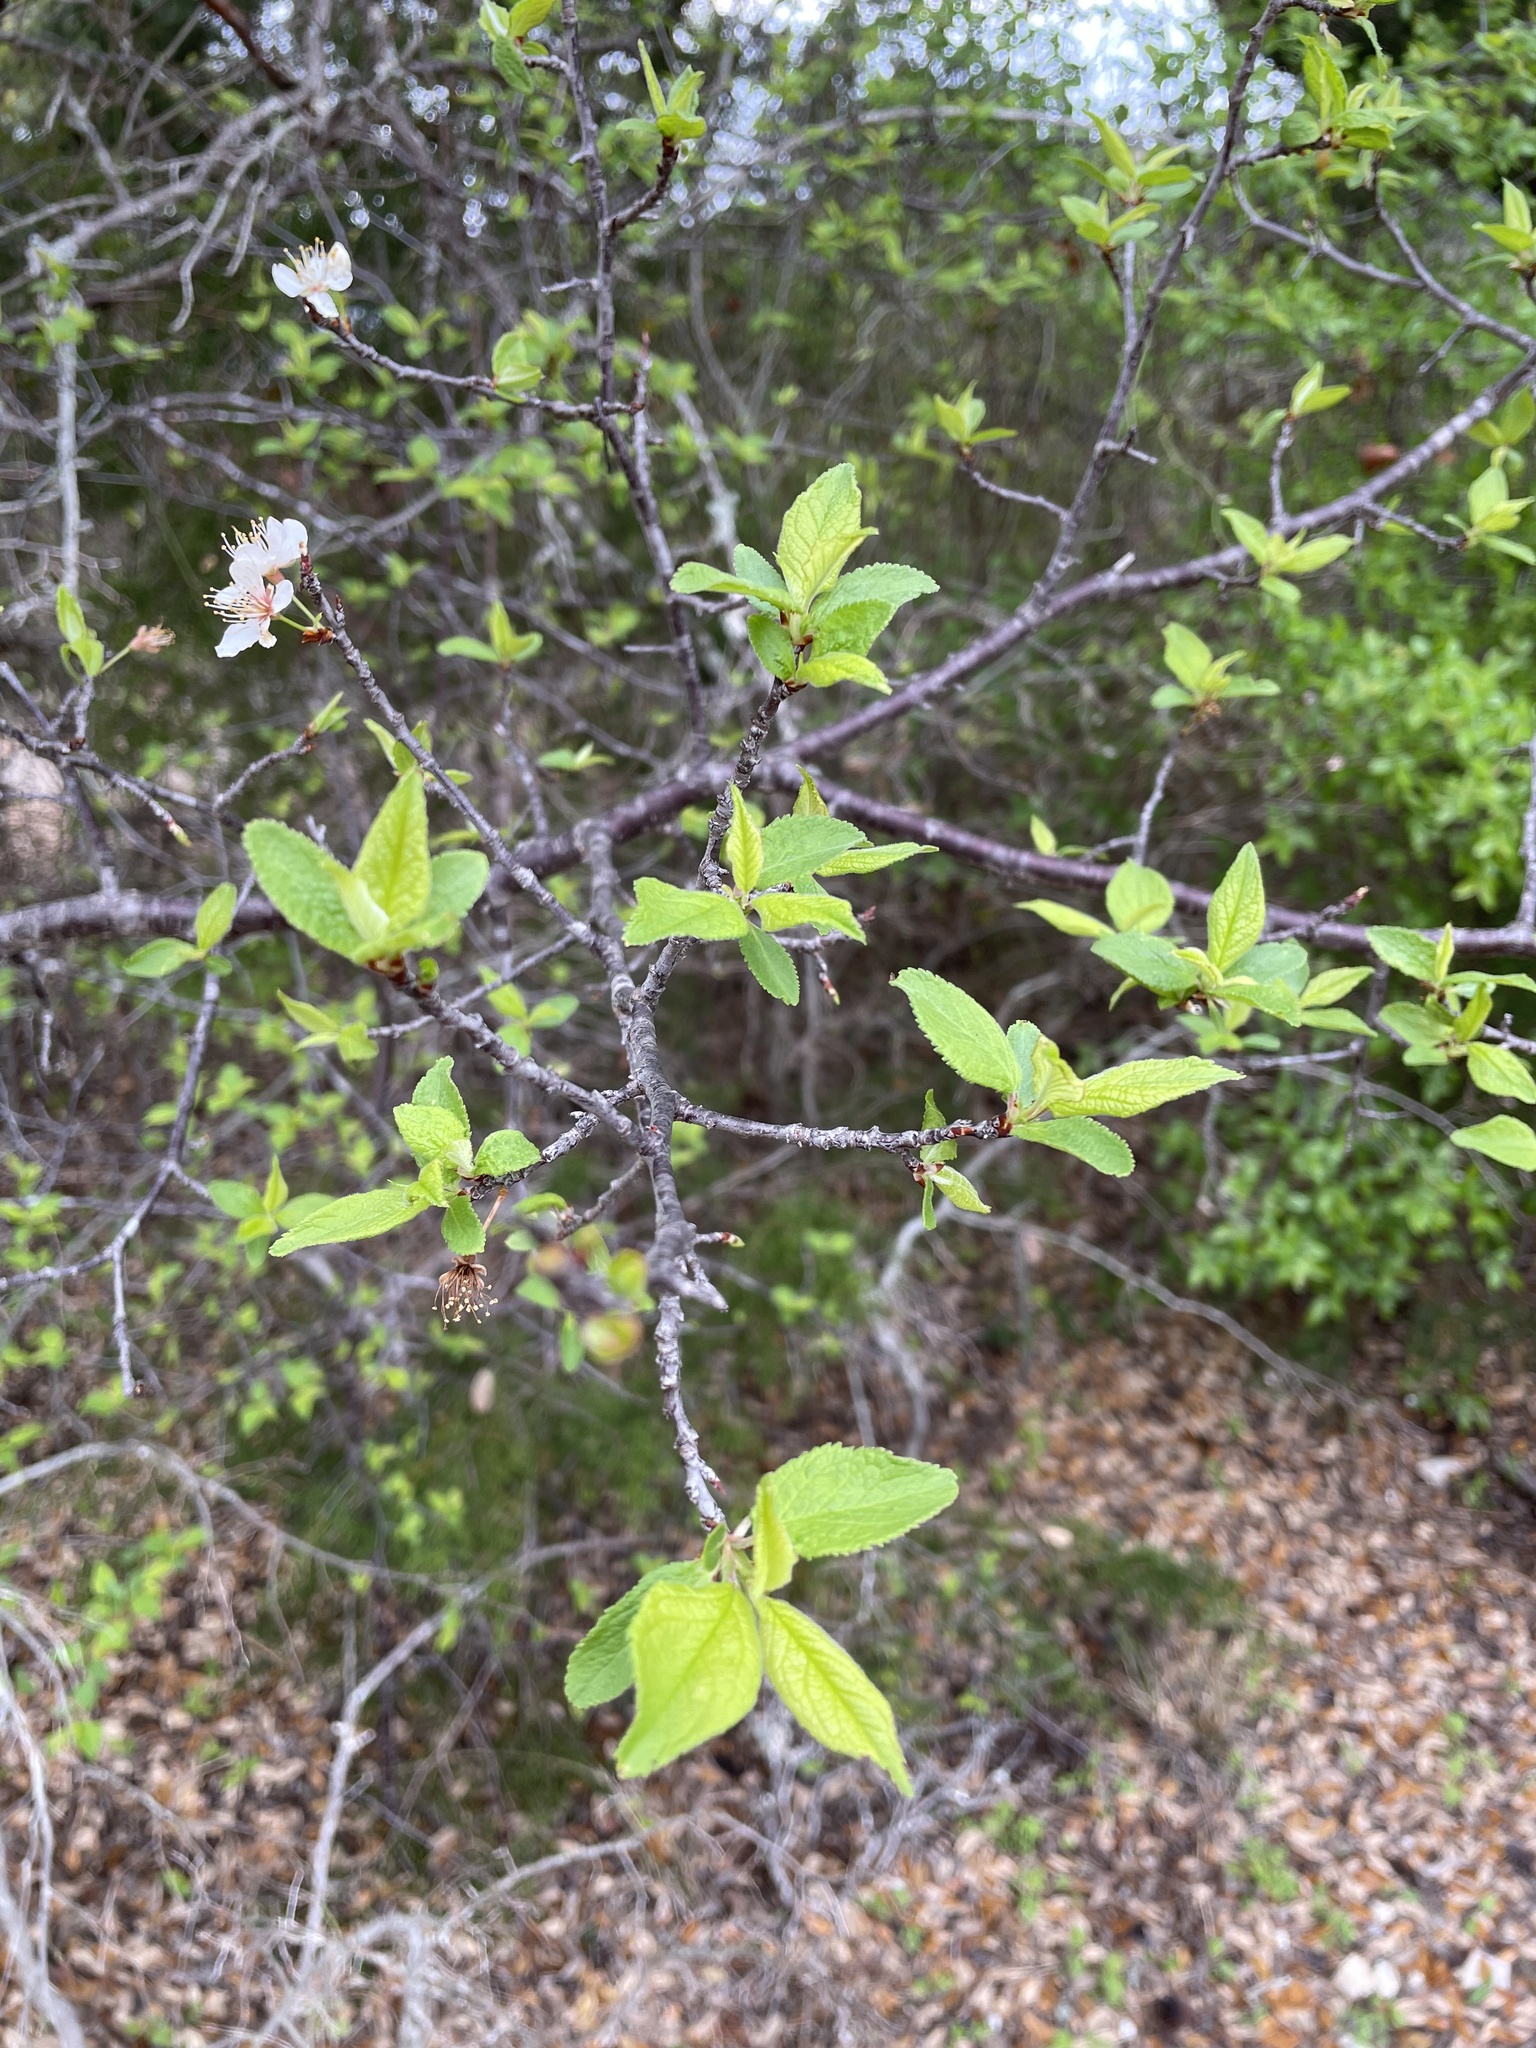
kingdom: Plantae
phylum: Tracheophyta
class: Magnoliopsida
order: Rosales
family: Rosaceae
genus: Prunus
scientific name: Prunus mexicana
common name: Mexican plum
